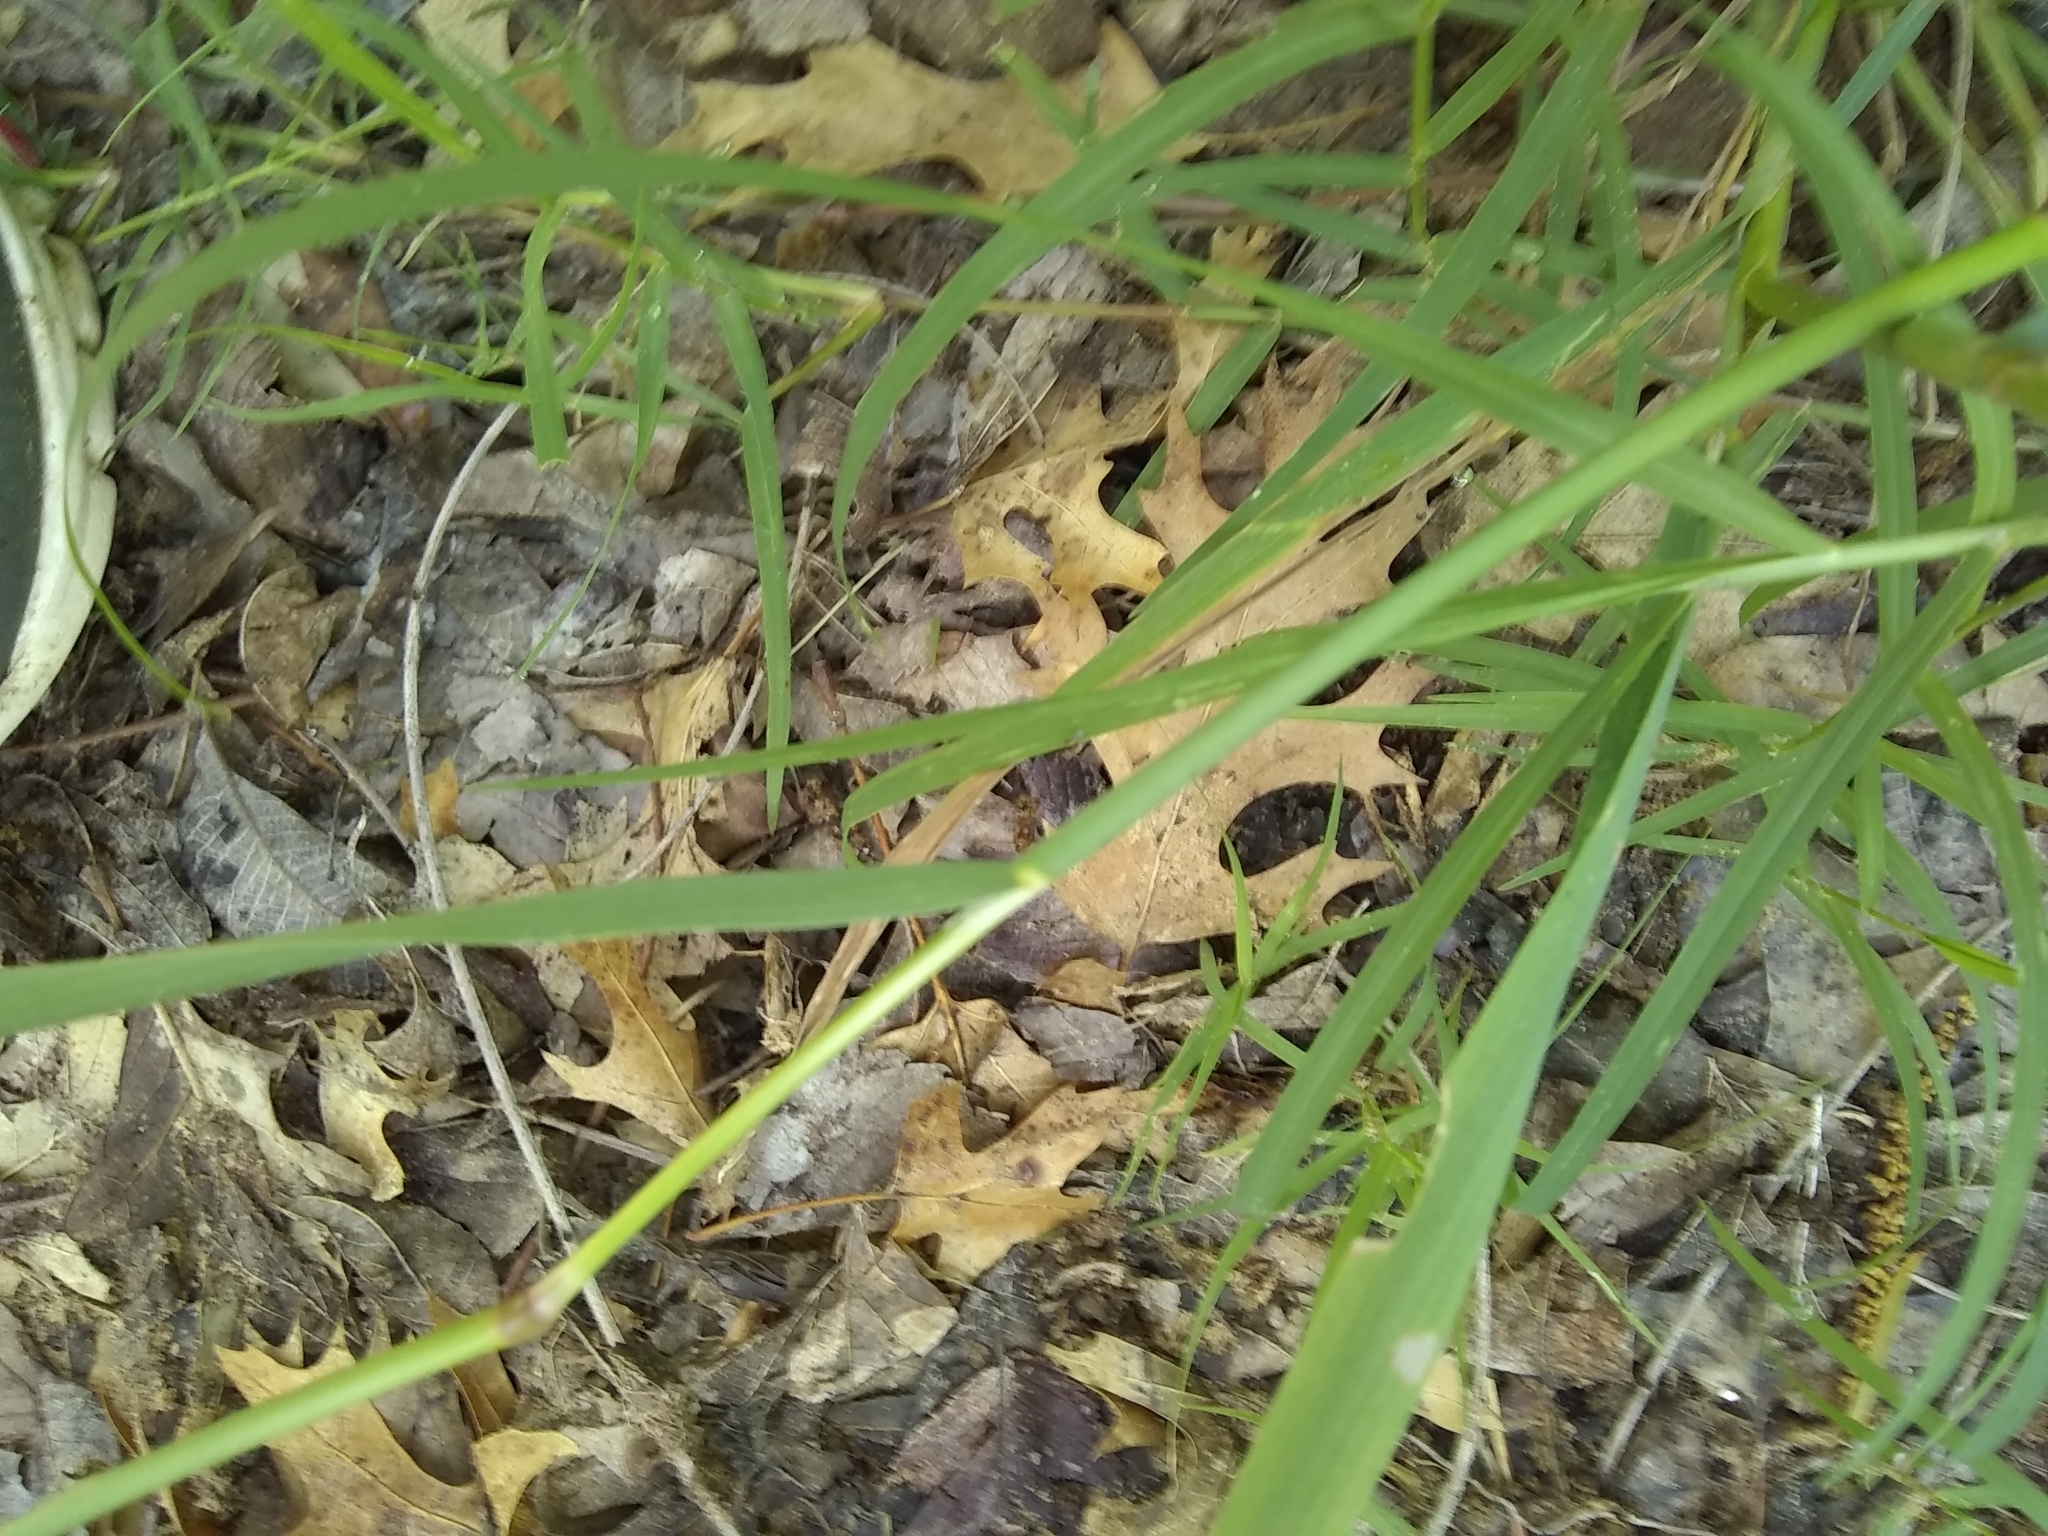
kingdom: Plantae
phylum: Tracheophyta
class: Liliopsida
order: Poales
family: Poaceae
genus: Polypogon
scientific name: Polypogon monspeliensis
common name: Annual rabbitsfoot grass
